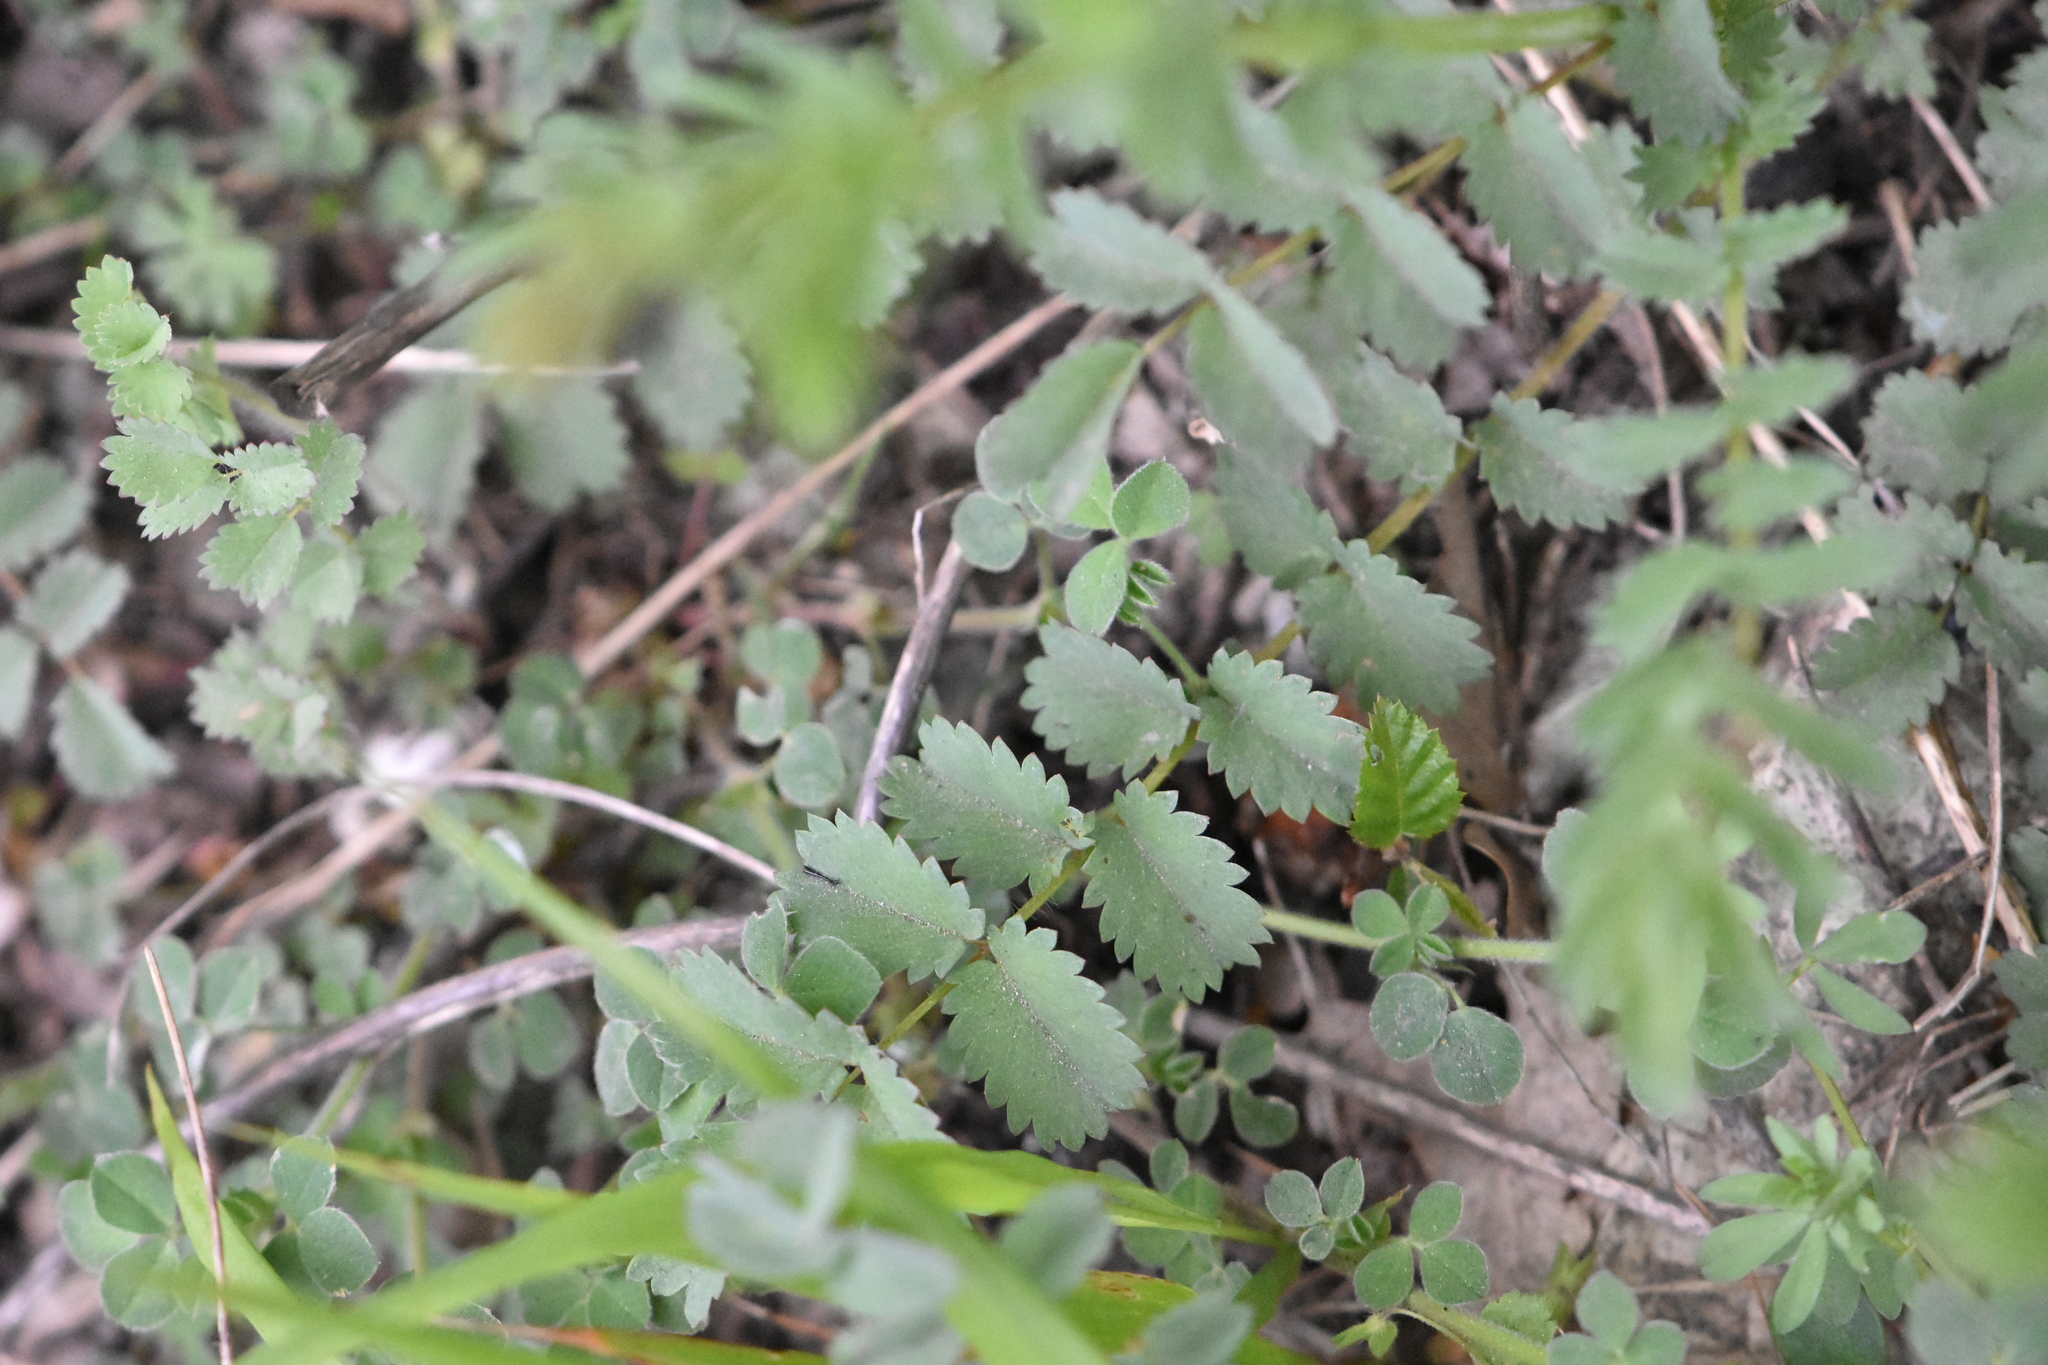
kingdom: Plantae
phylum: Tracheophyta
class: Magnoliopsida
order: Rosales
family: Rosaceae
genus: Poterium
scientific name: Poterium sanguisorba
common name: Salad burnet
